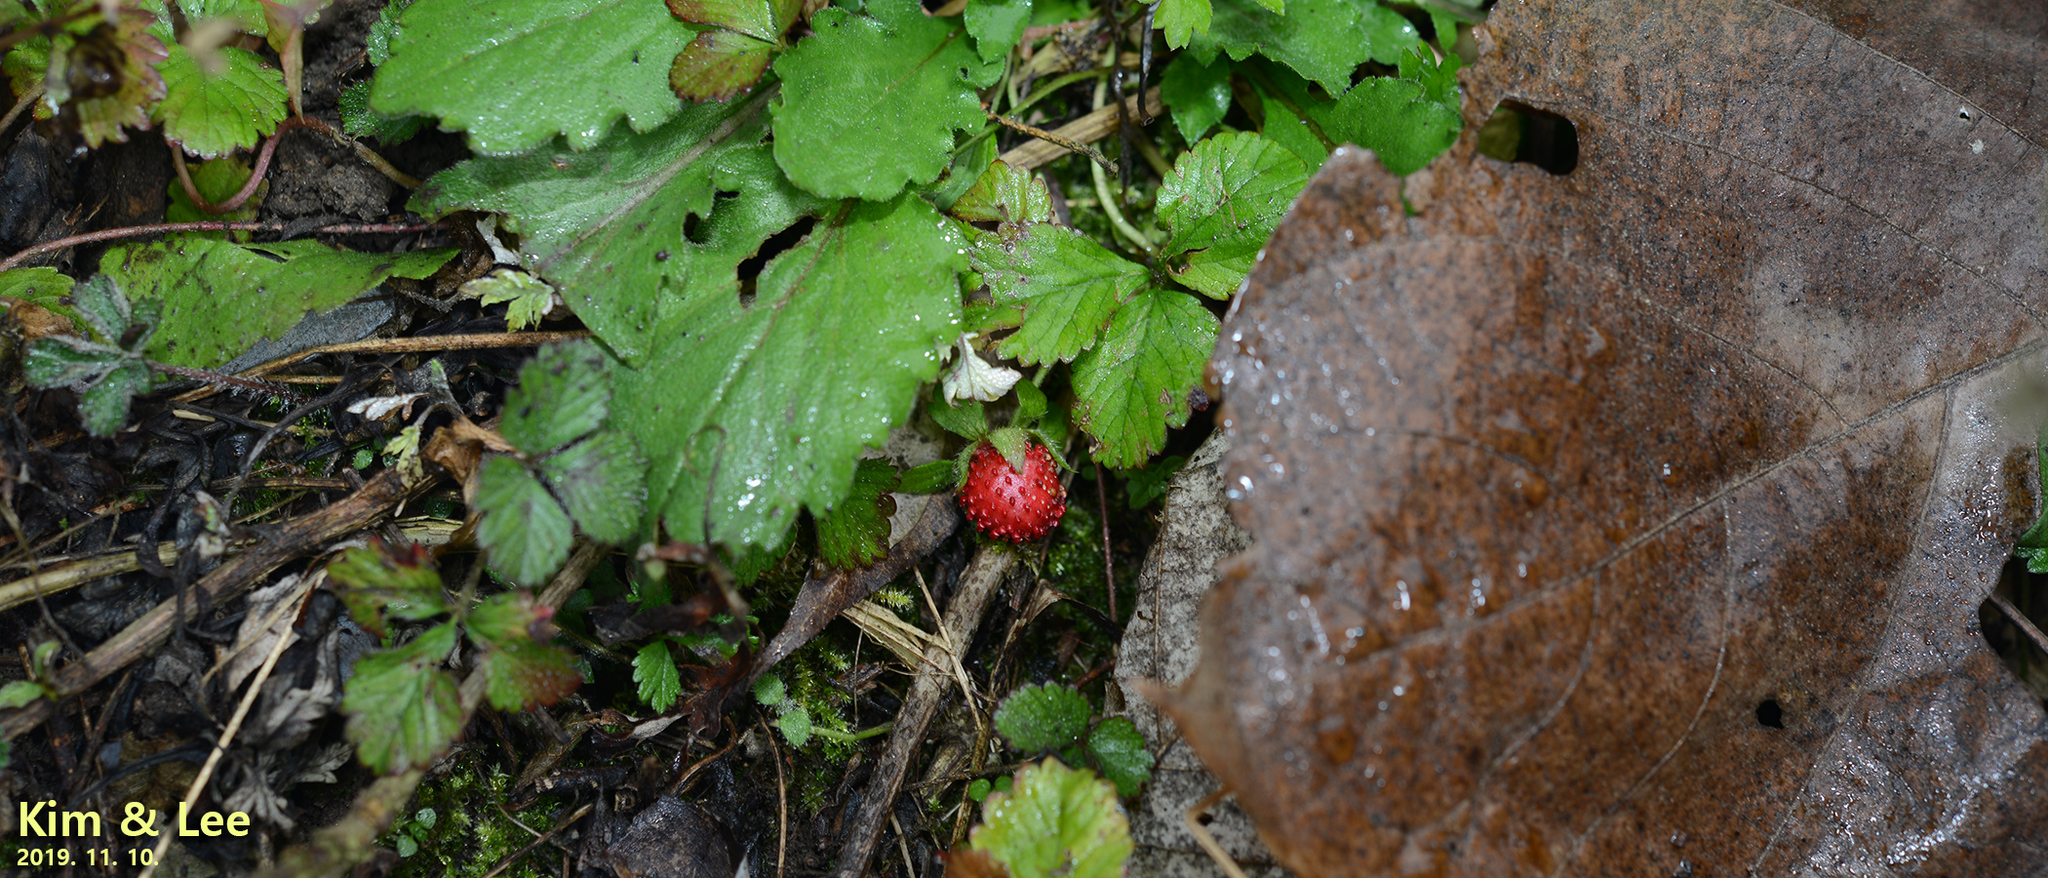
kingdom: Plantae
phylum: Tracheophyta
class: Magnoliopsida
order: Rosales
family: Rosaceae
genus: Potentilla
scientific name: Potentilla indica
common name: Yellow-flowered strawberry
